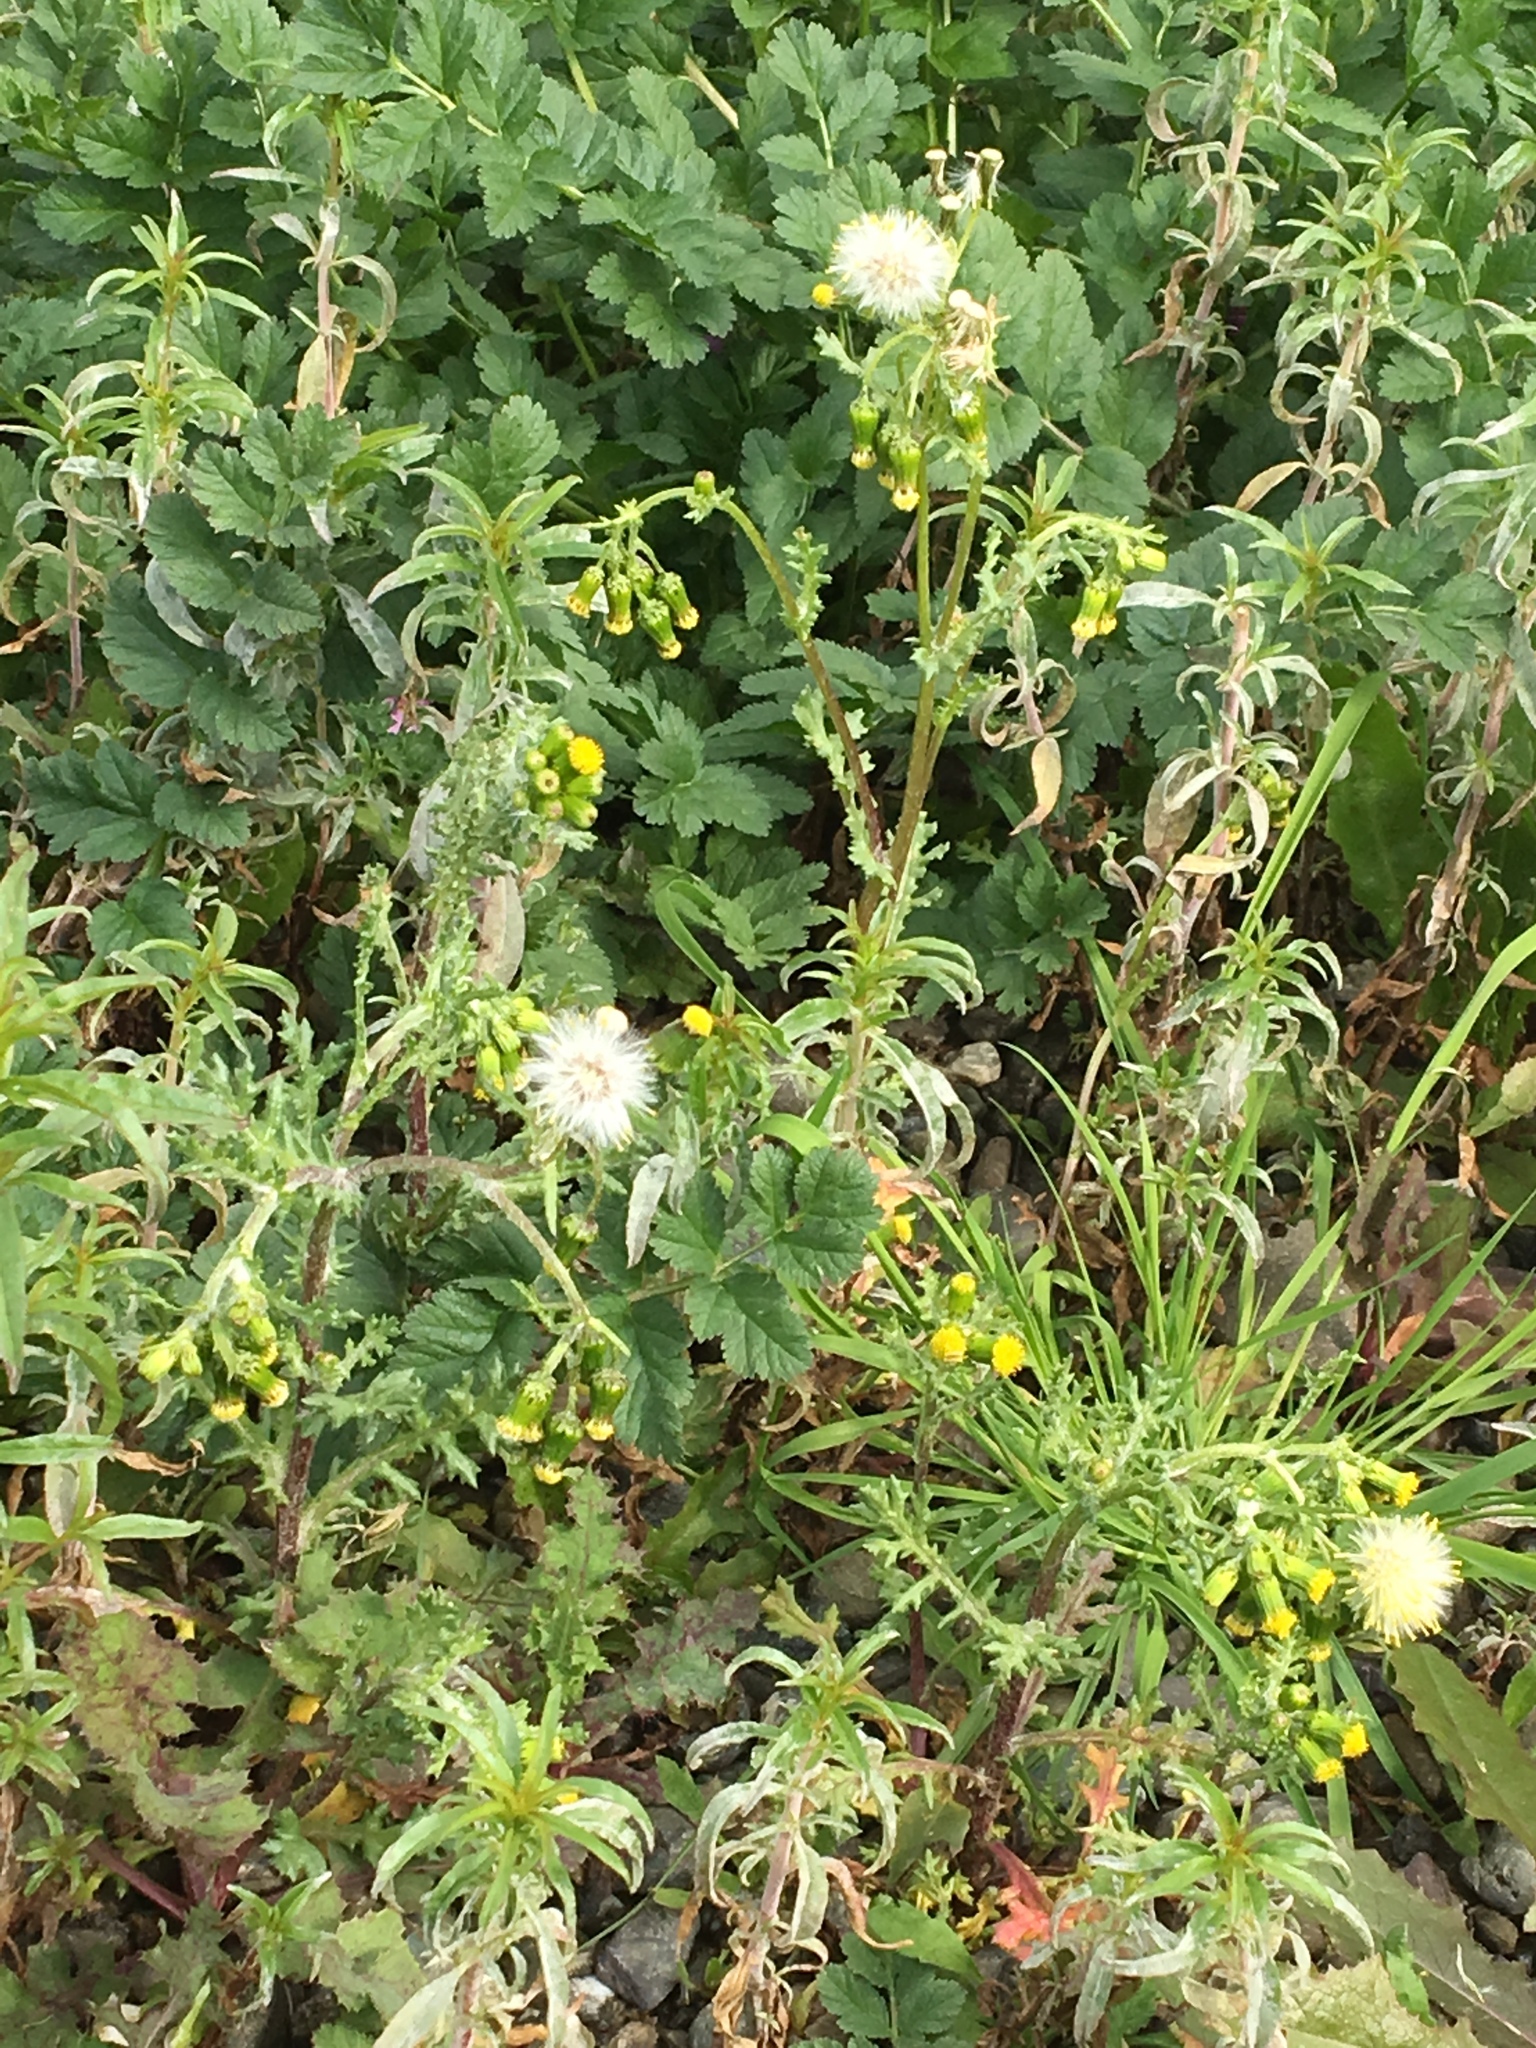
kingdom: Plantae
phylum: Tracheophyta
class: Magnoliopsida
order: Asterales
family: Asteraceae
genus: Senecio
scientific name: Senecio vulgaris
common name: Old-man-in-the-spring
